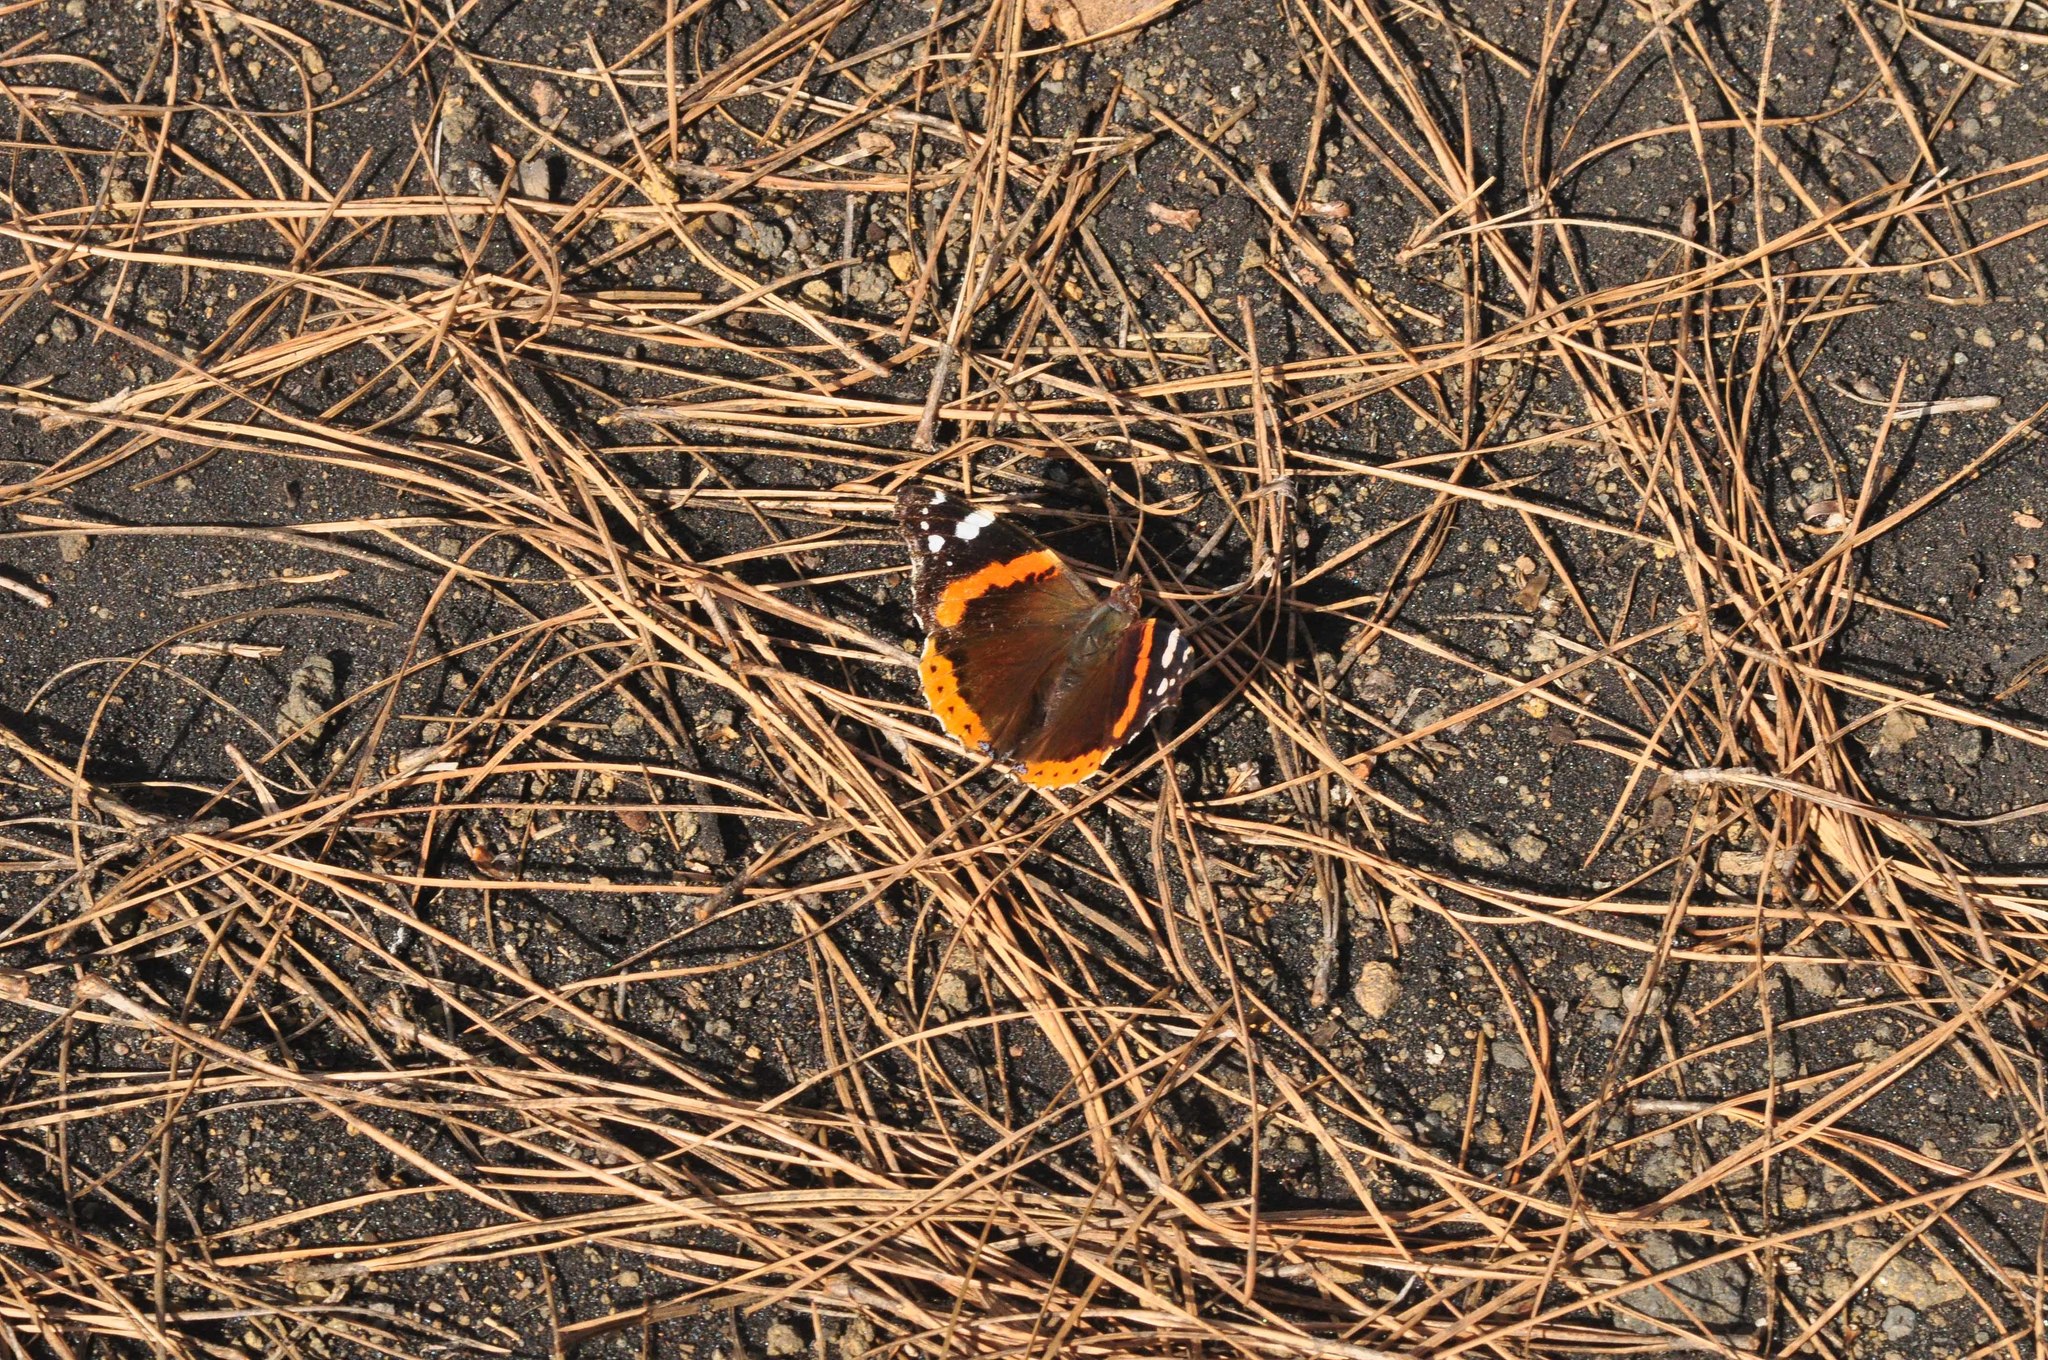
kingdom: Animalia
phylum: Arthropoda
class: Insecta
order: Lepidoptera
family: Nymphalidae
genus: Vanessa
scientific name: Vanessa atalanta
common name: Red admiral
